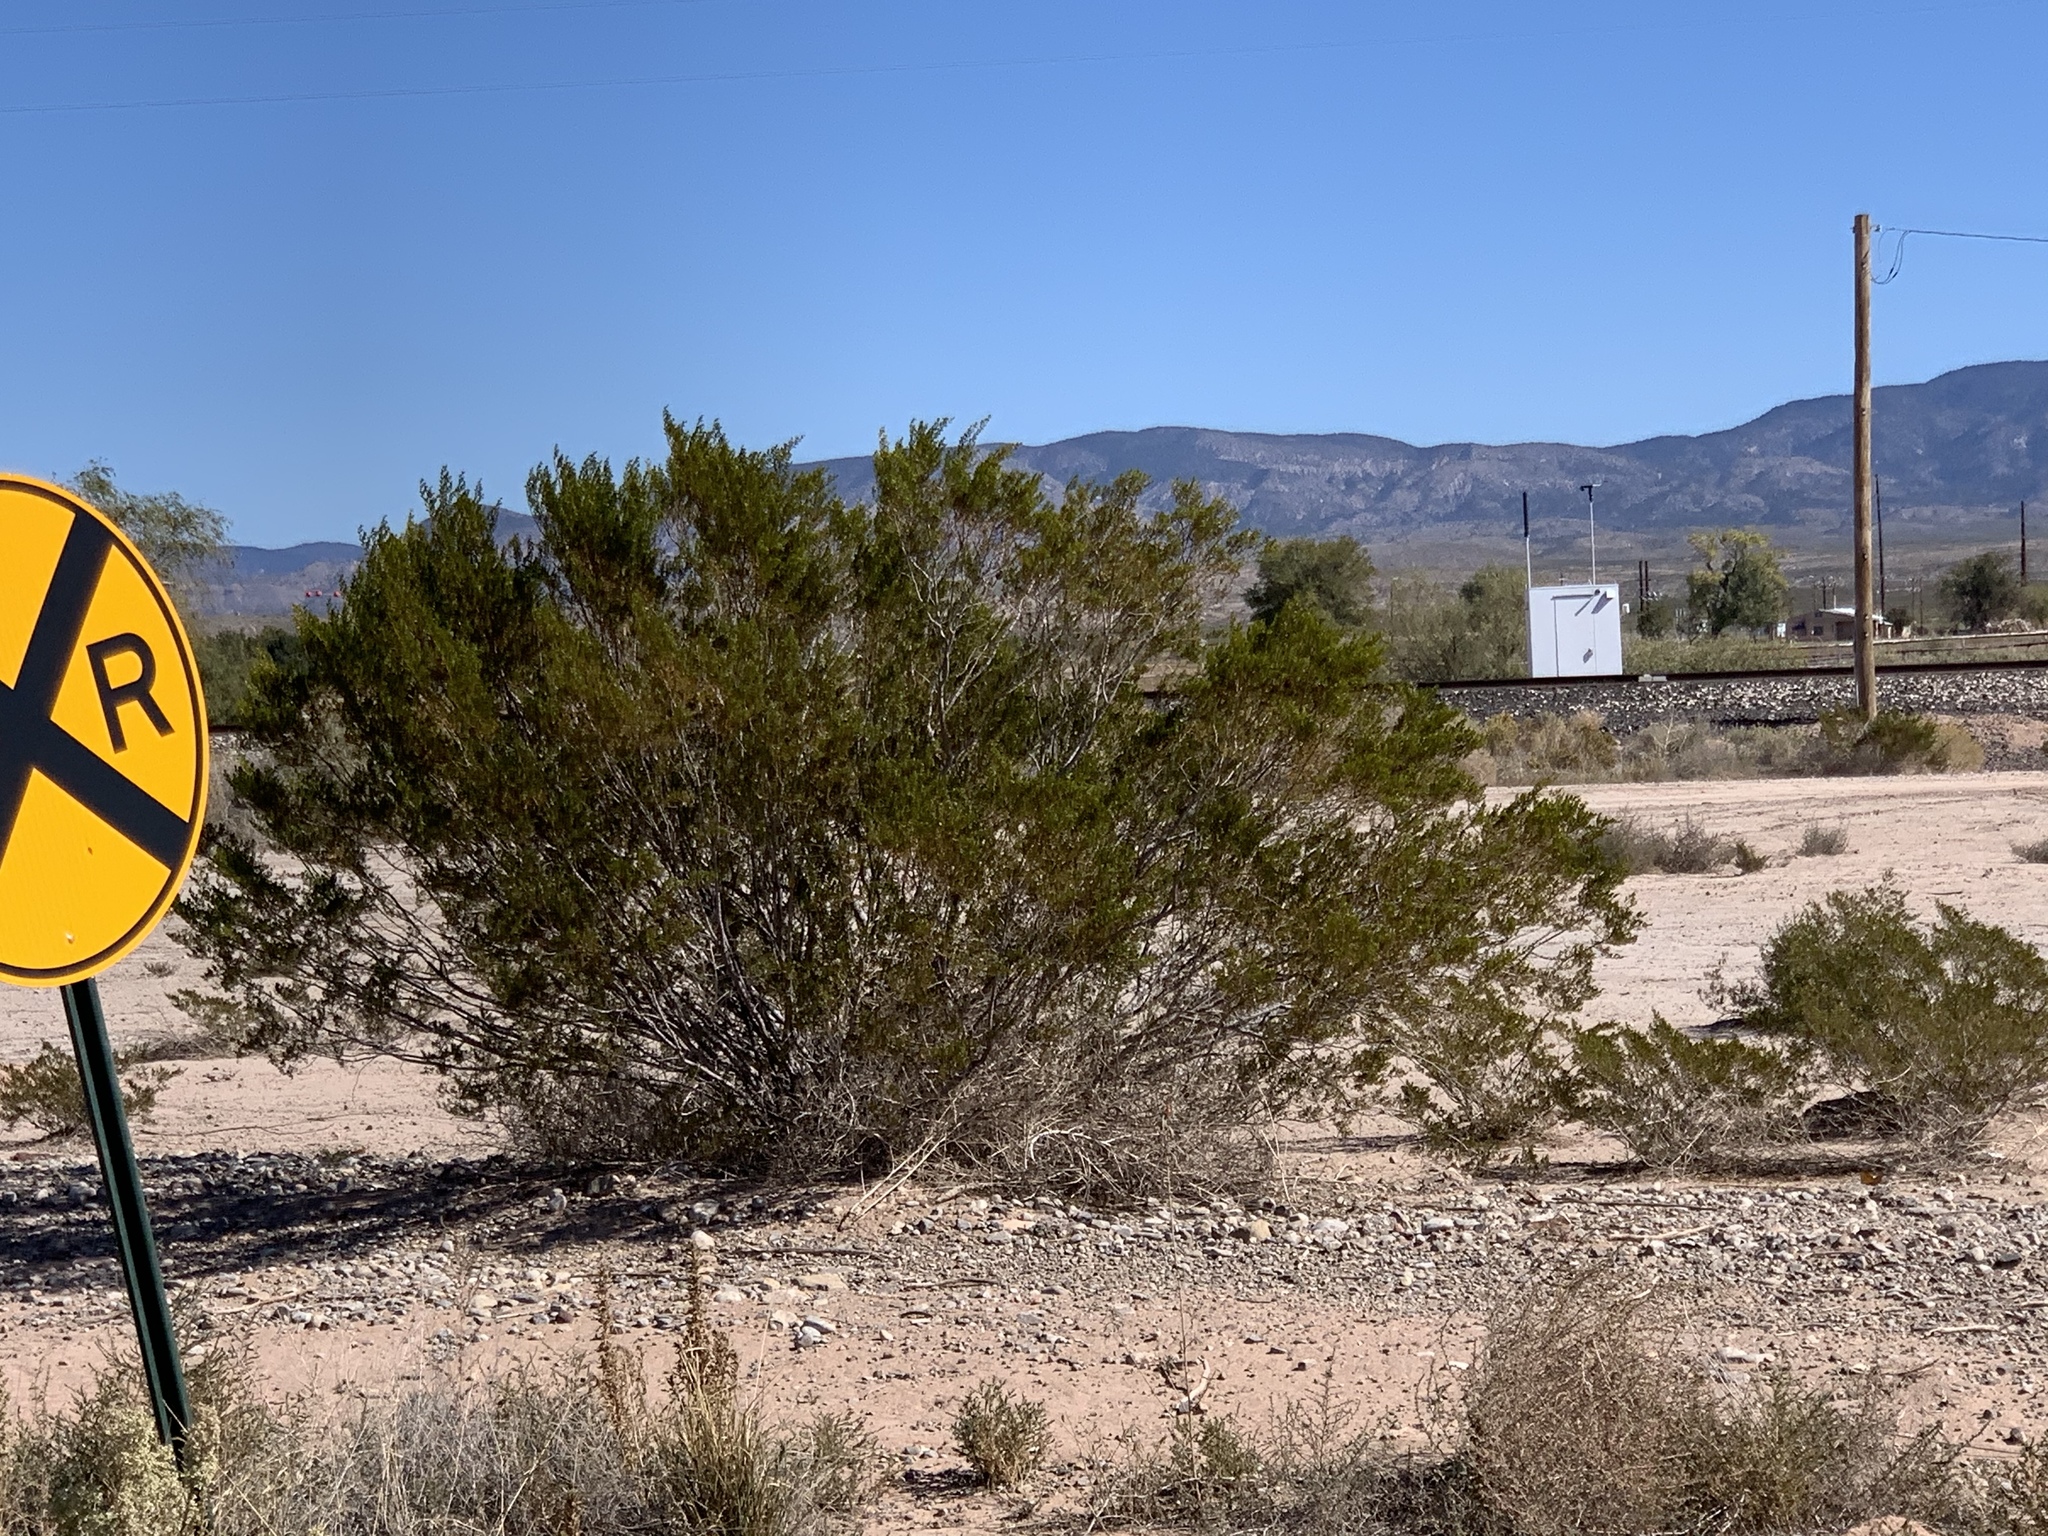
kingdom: Plantae
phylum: Tracheophyta
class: Magnoliopsida
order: Zygophyllales
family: Zygophyllaceae
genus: Larrea
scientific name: Larrea tridentata
